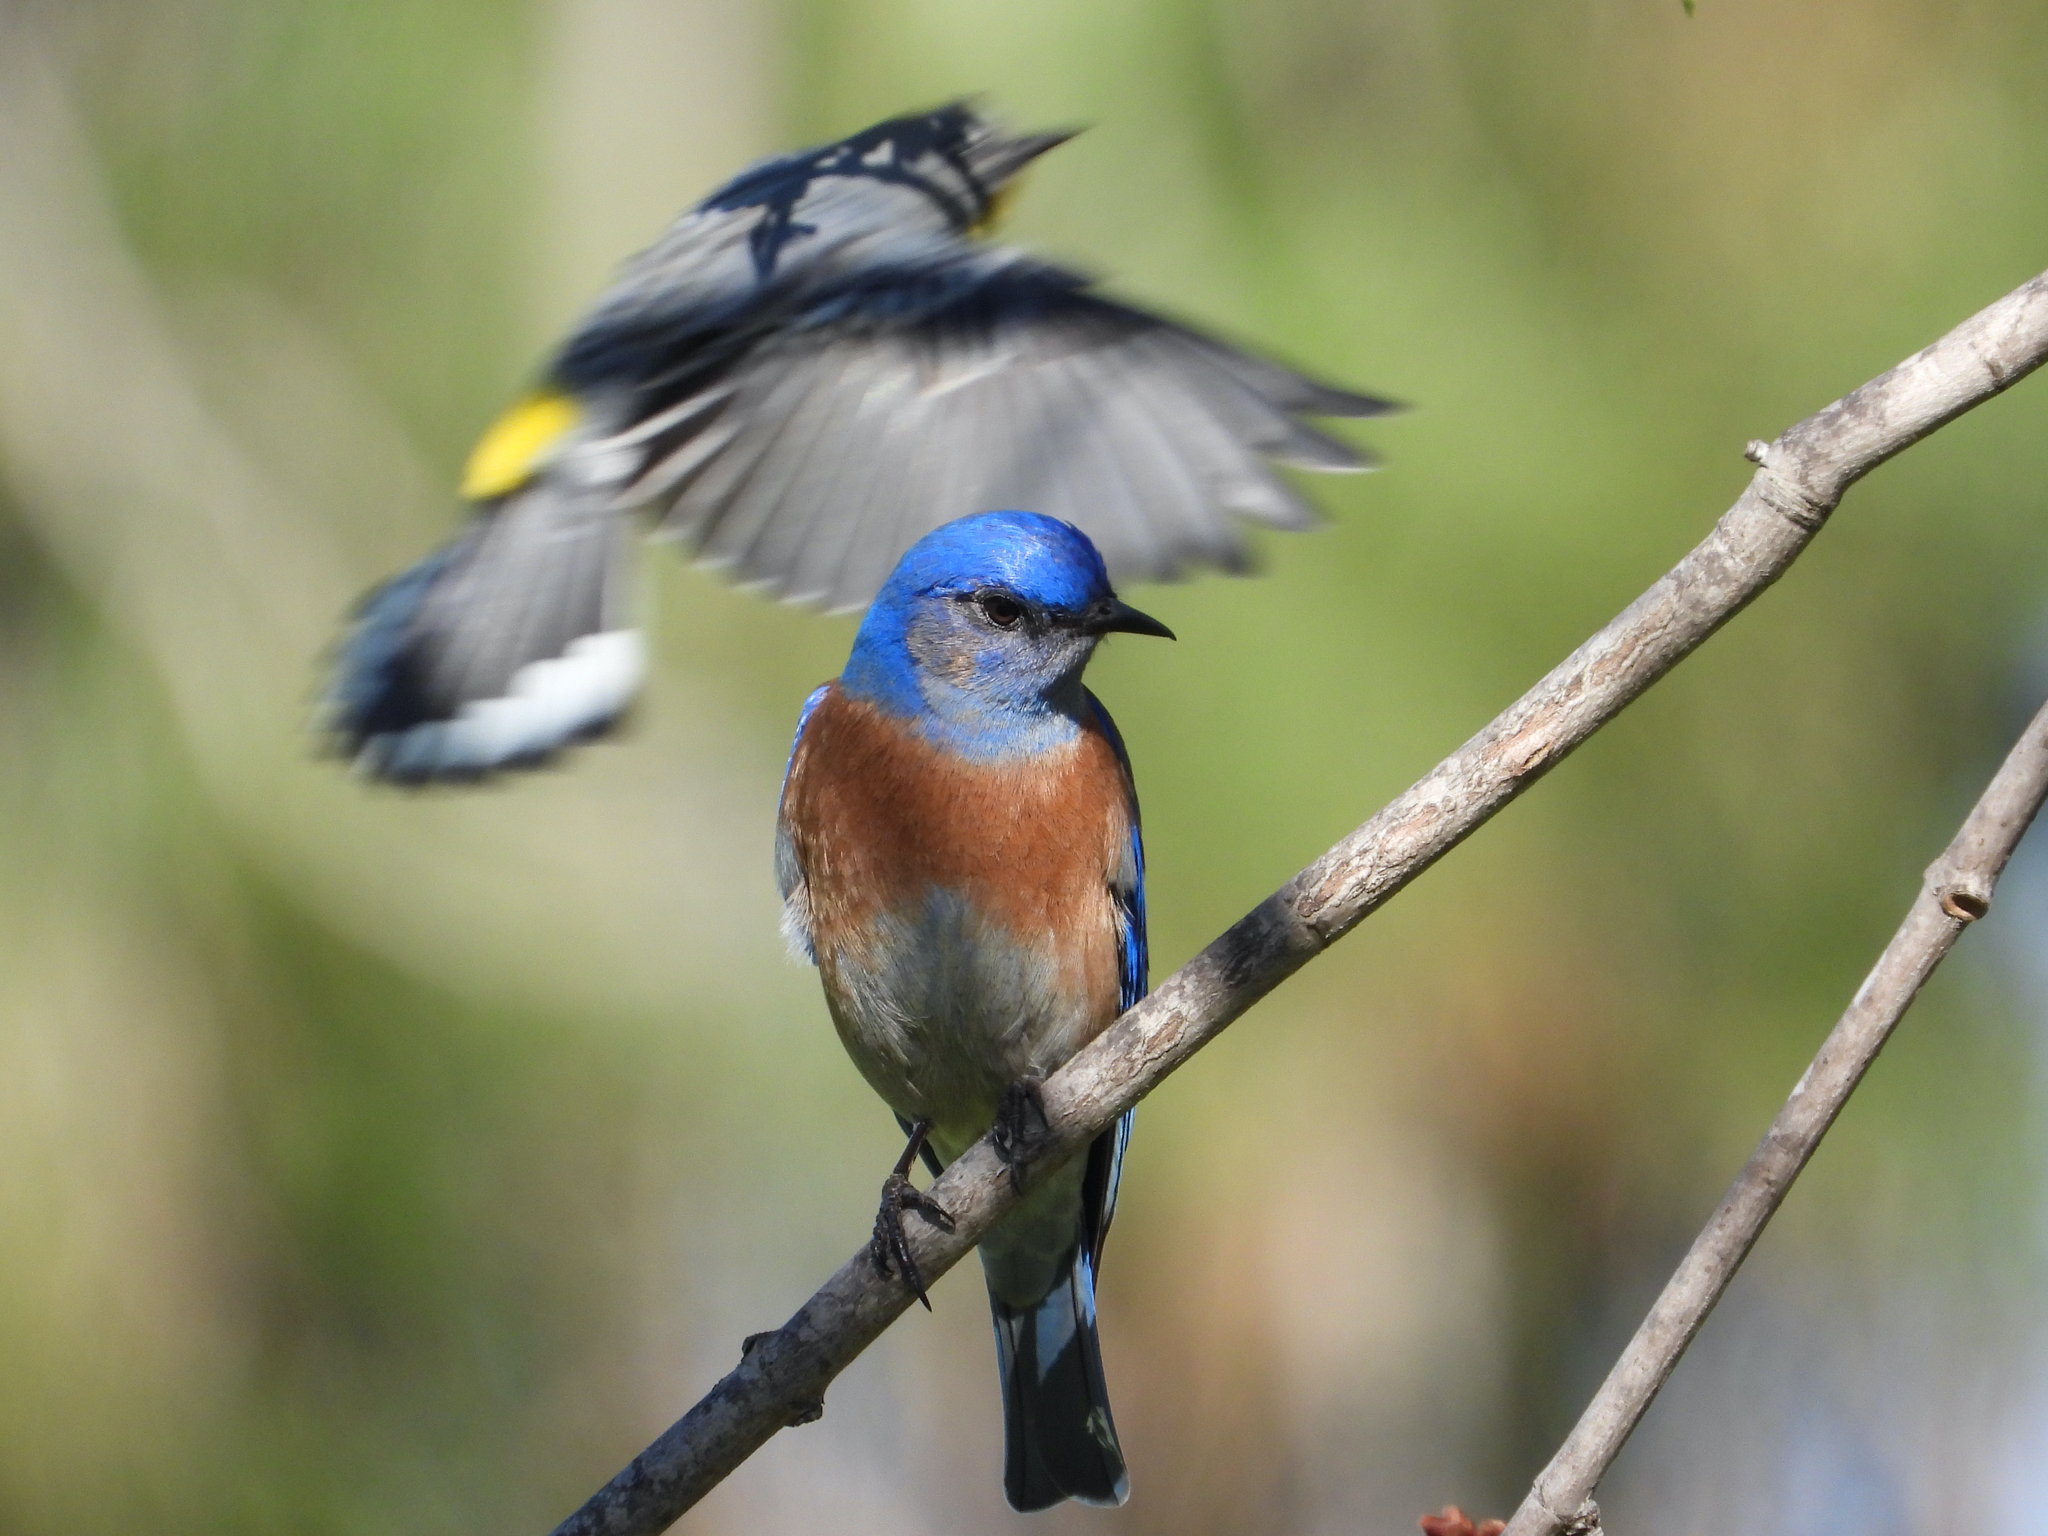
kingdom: Animalia
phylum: Chordata
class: Aves
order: Passeriformes
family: Parulidae
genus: Setophaga
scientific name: Setophaga coronata
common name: Myrtle warbler
